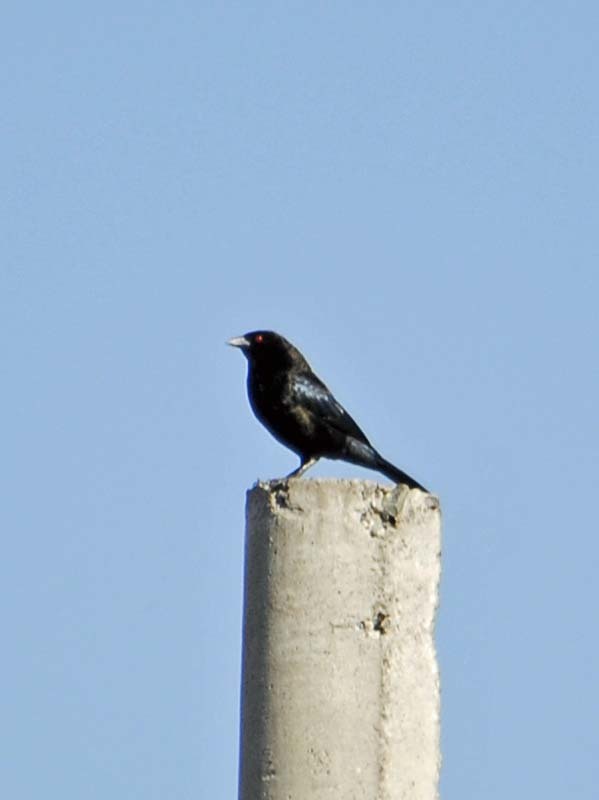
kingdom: Animalia
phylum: Chordata
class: Aves
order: Passeriformes
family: Icteridae
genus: Molothrus
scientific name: Molothrus aeneus
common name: Bronzed cowbird
